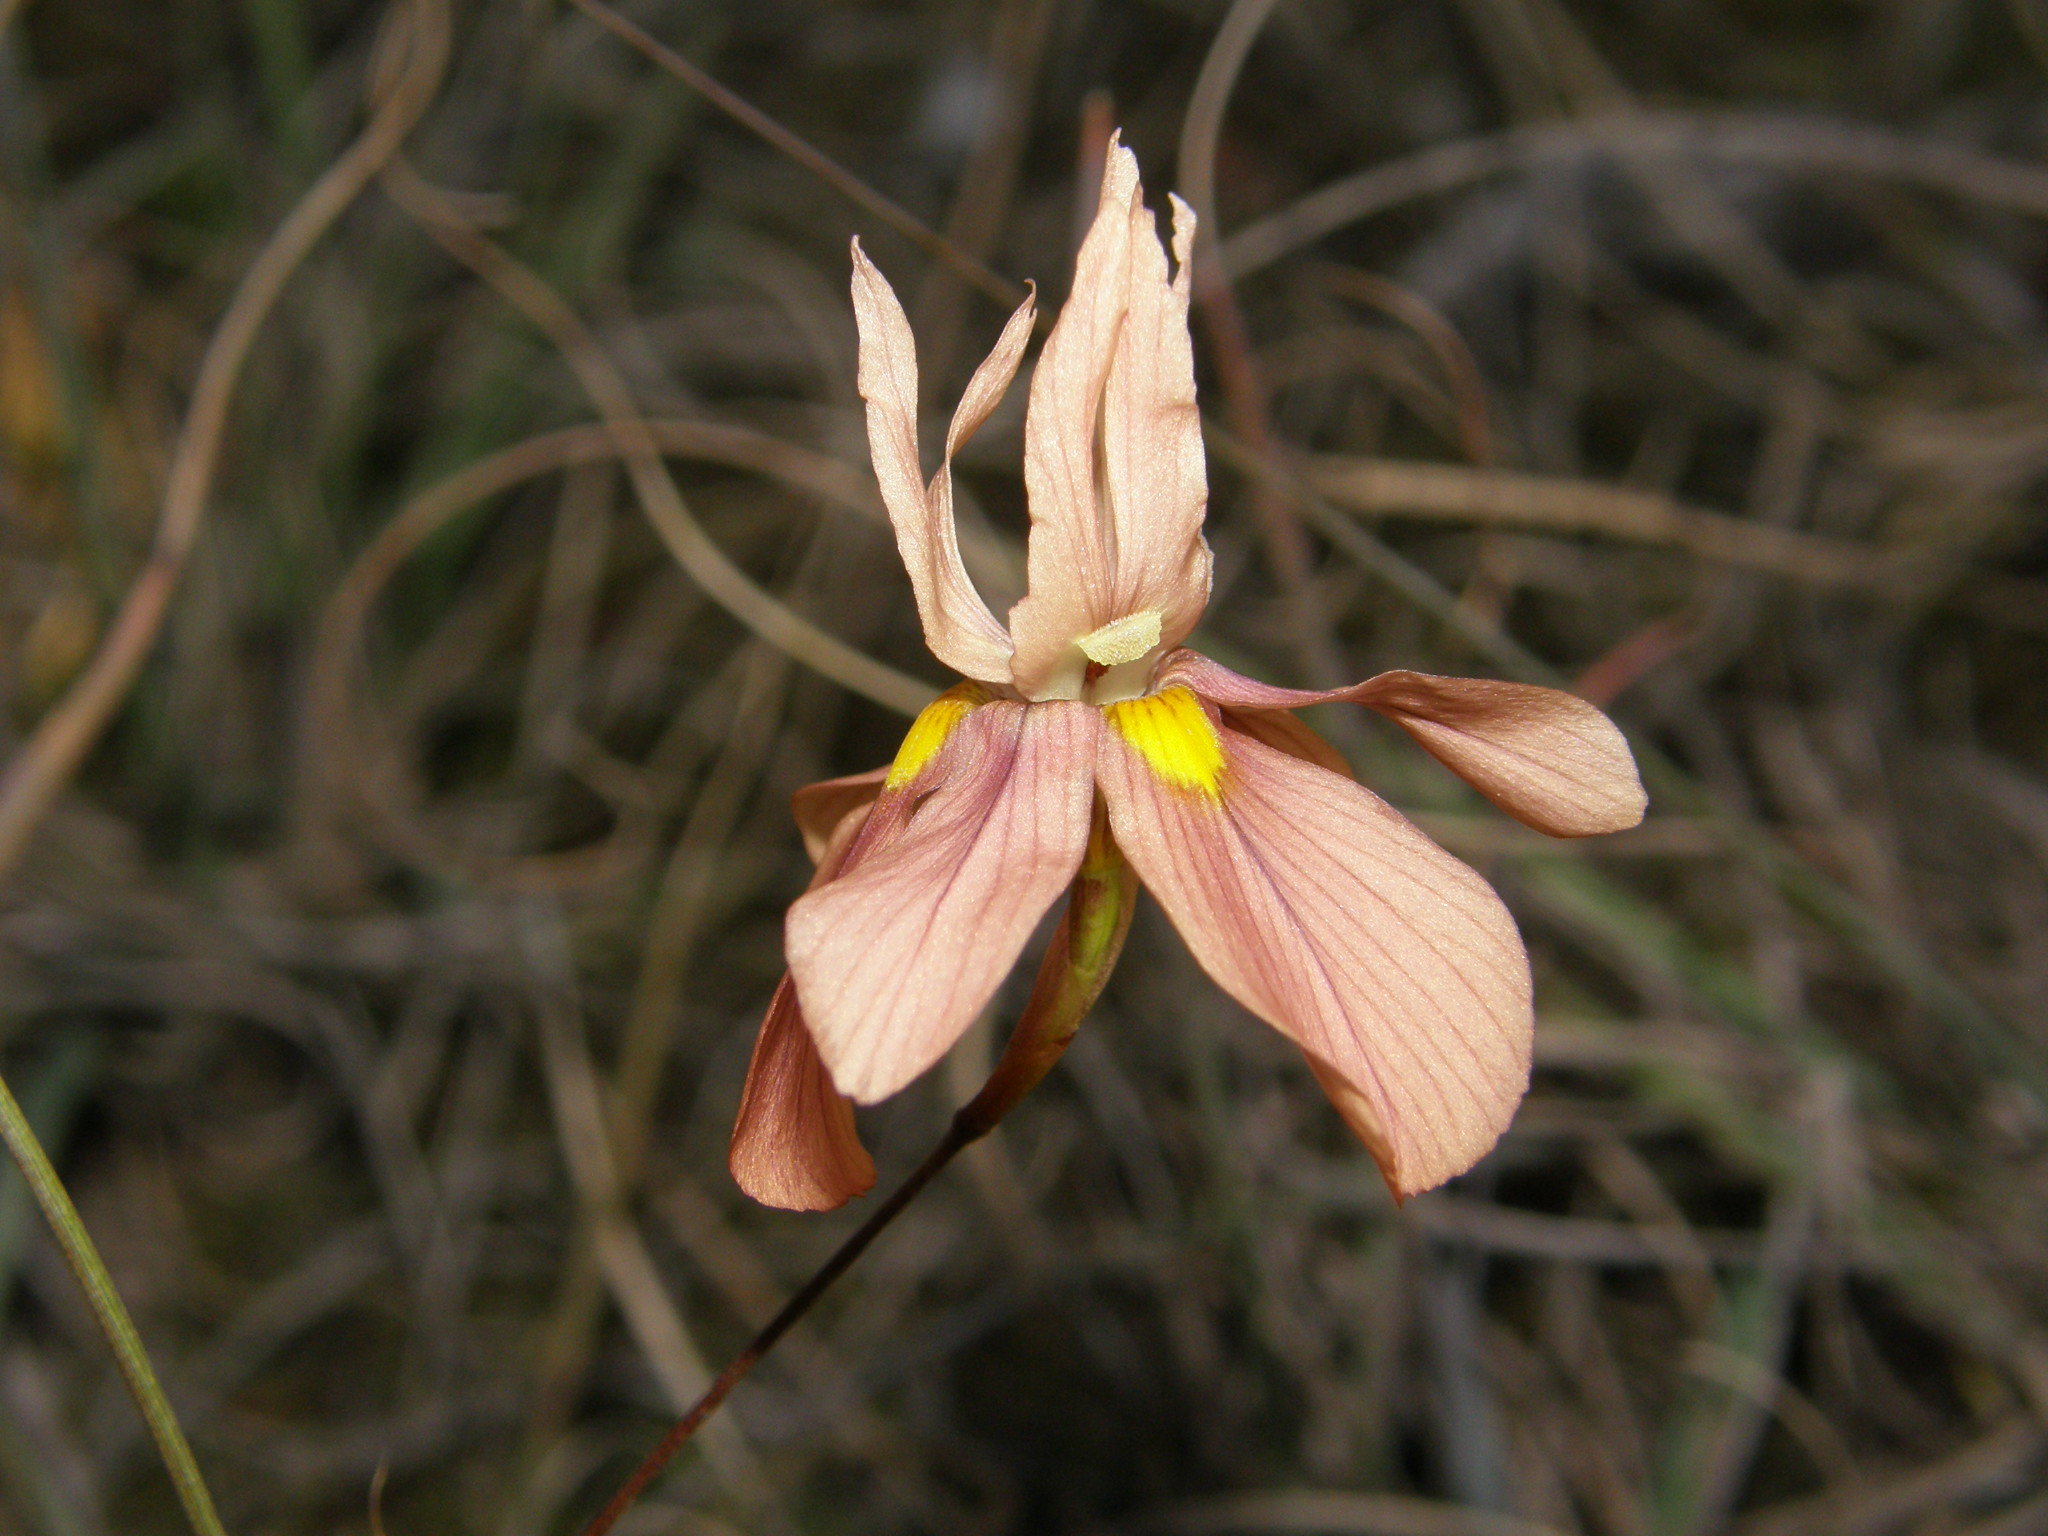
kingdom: Plantae
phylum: Tracheophyta
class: Liliopsida
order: Asparagales
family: Iridaceae
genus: Moraea
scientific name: Moraea gawleri
